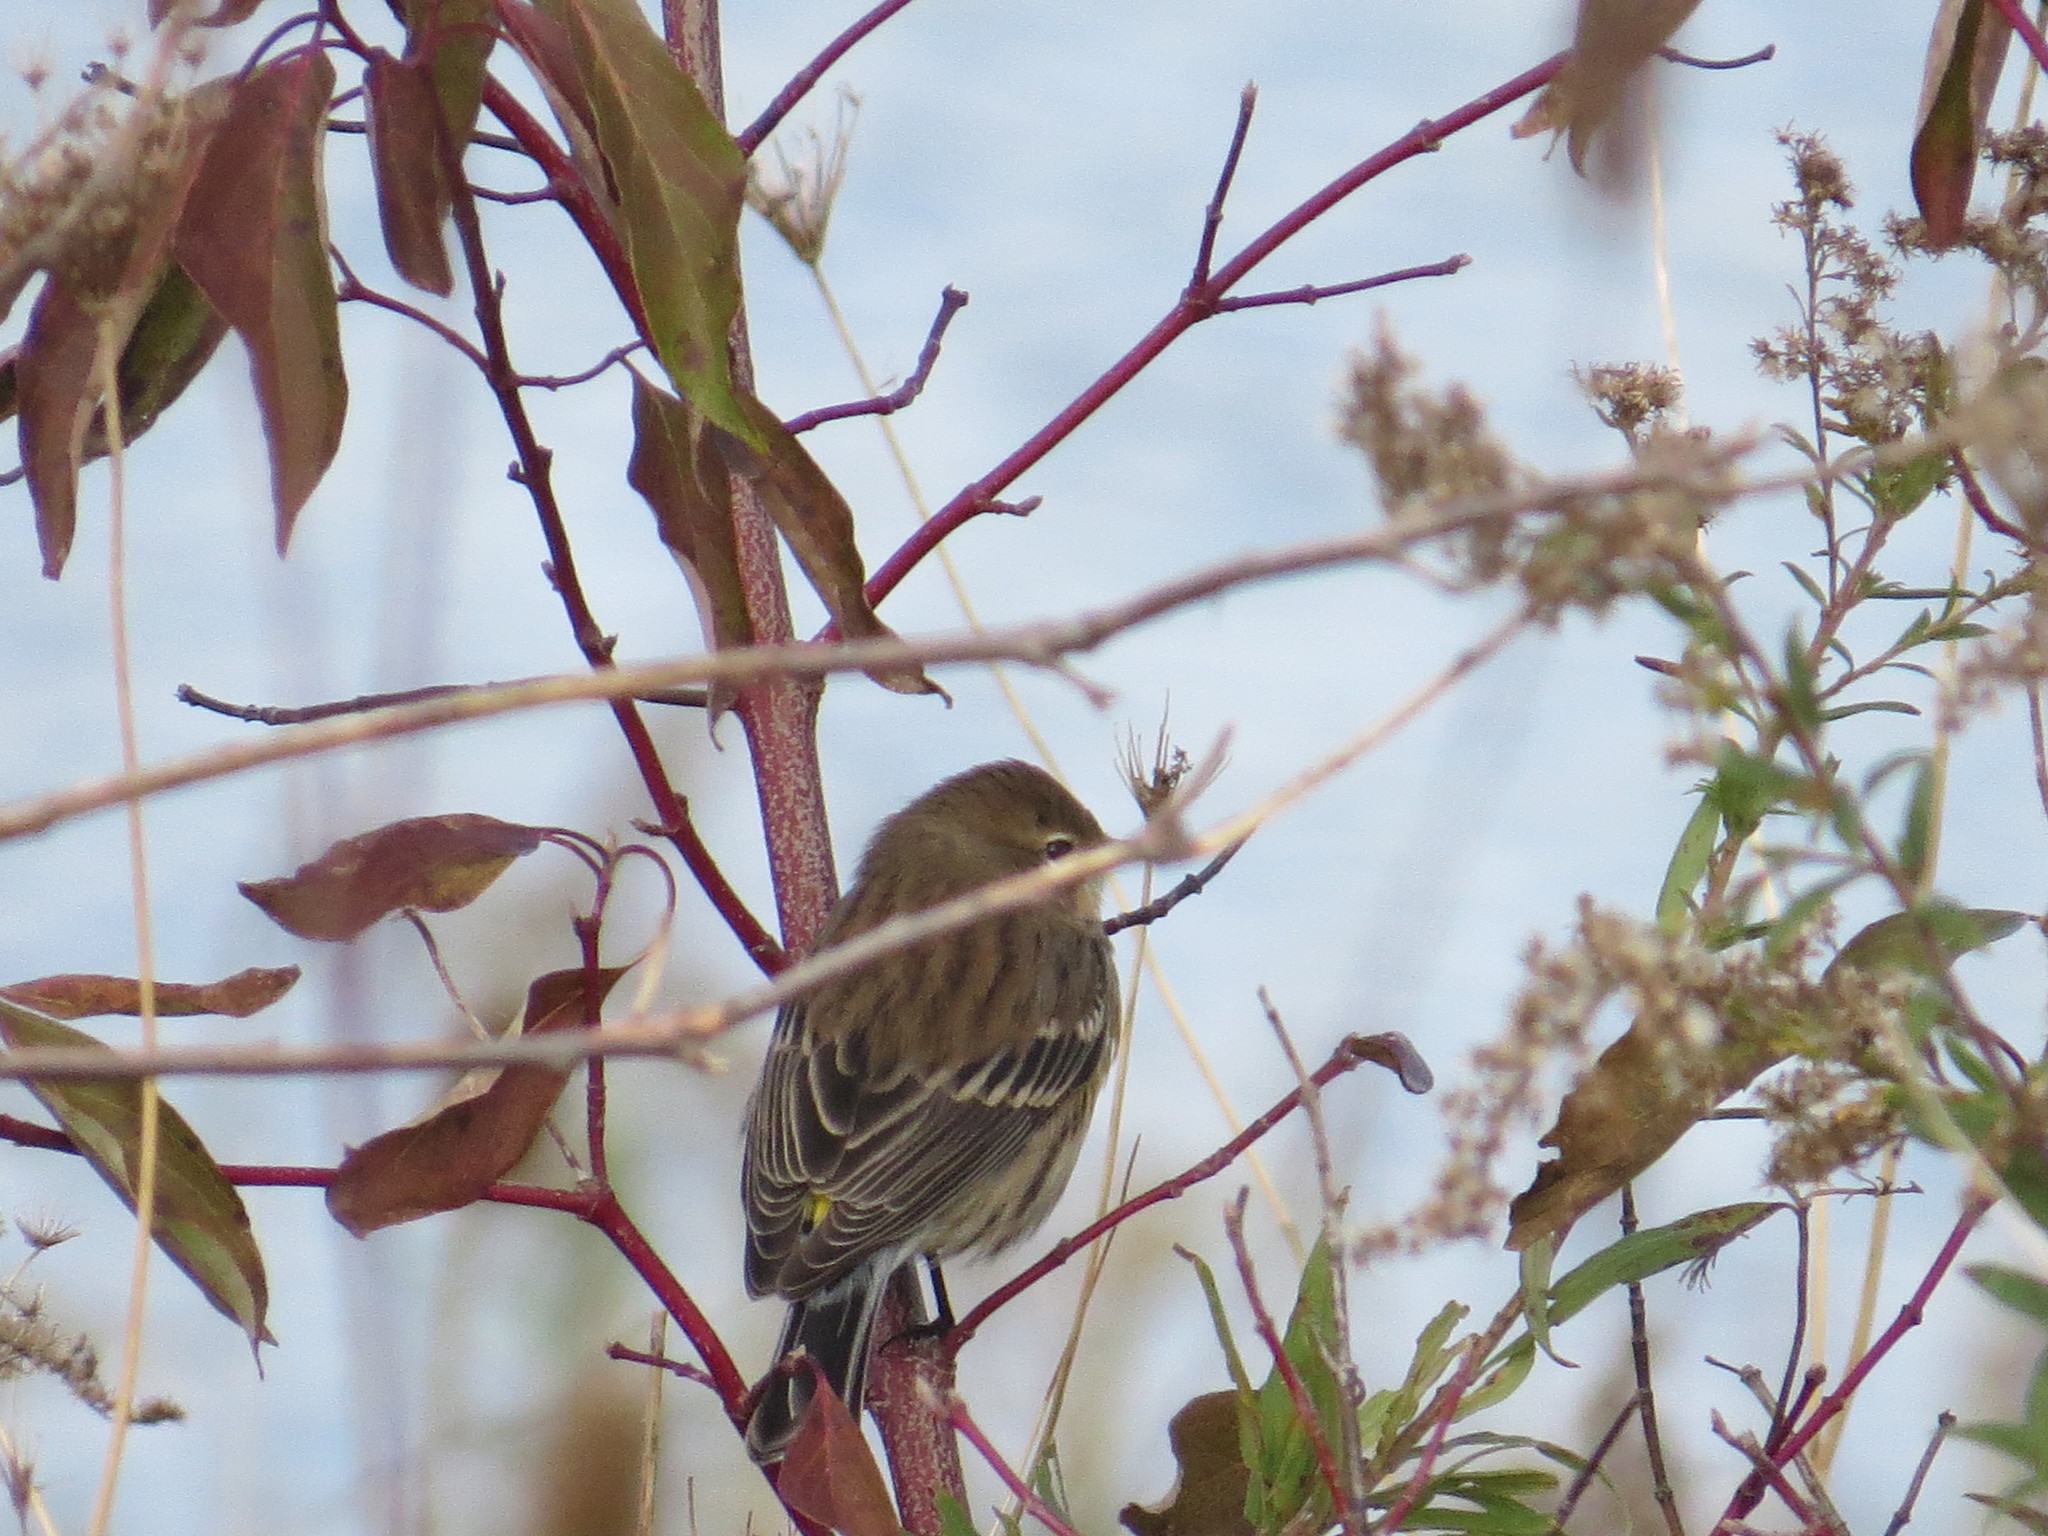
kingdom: Animalia
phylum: Chordata
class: Aves
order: Passeriformes
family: Parulidae
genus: Setophaga
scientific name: Setophaga coronata
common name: Myrtle warbler
